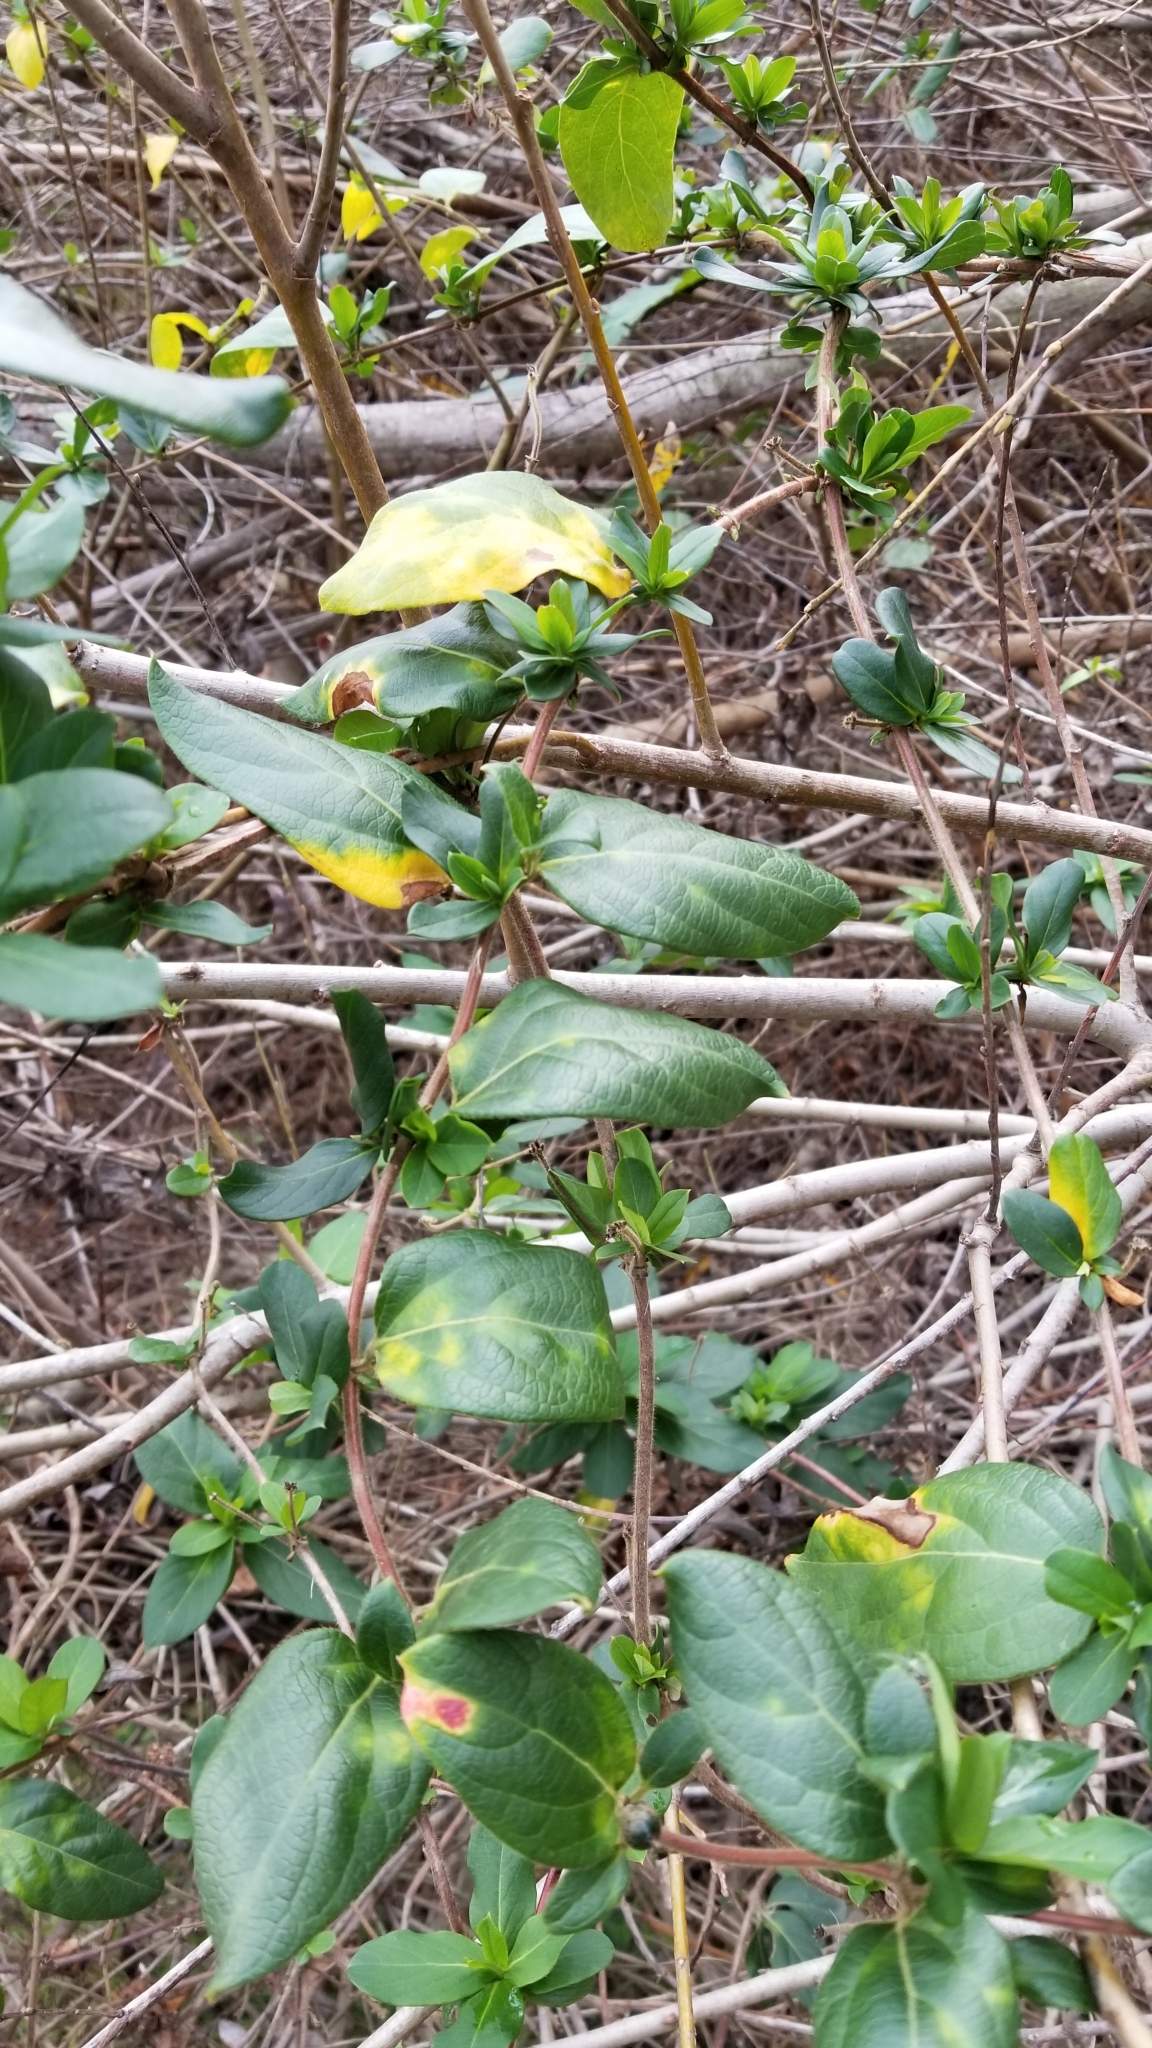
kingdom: Plantae
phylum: Tracheophyta
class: Magnoliopsida
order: Dipsacales
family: Caprifoliaceae
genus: Lonicera
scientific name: Lonicera japonica
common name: Japanese honeysuckle
